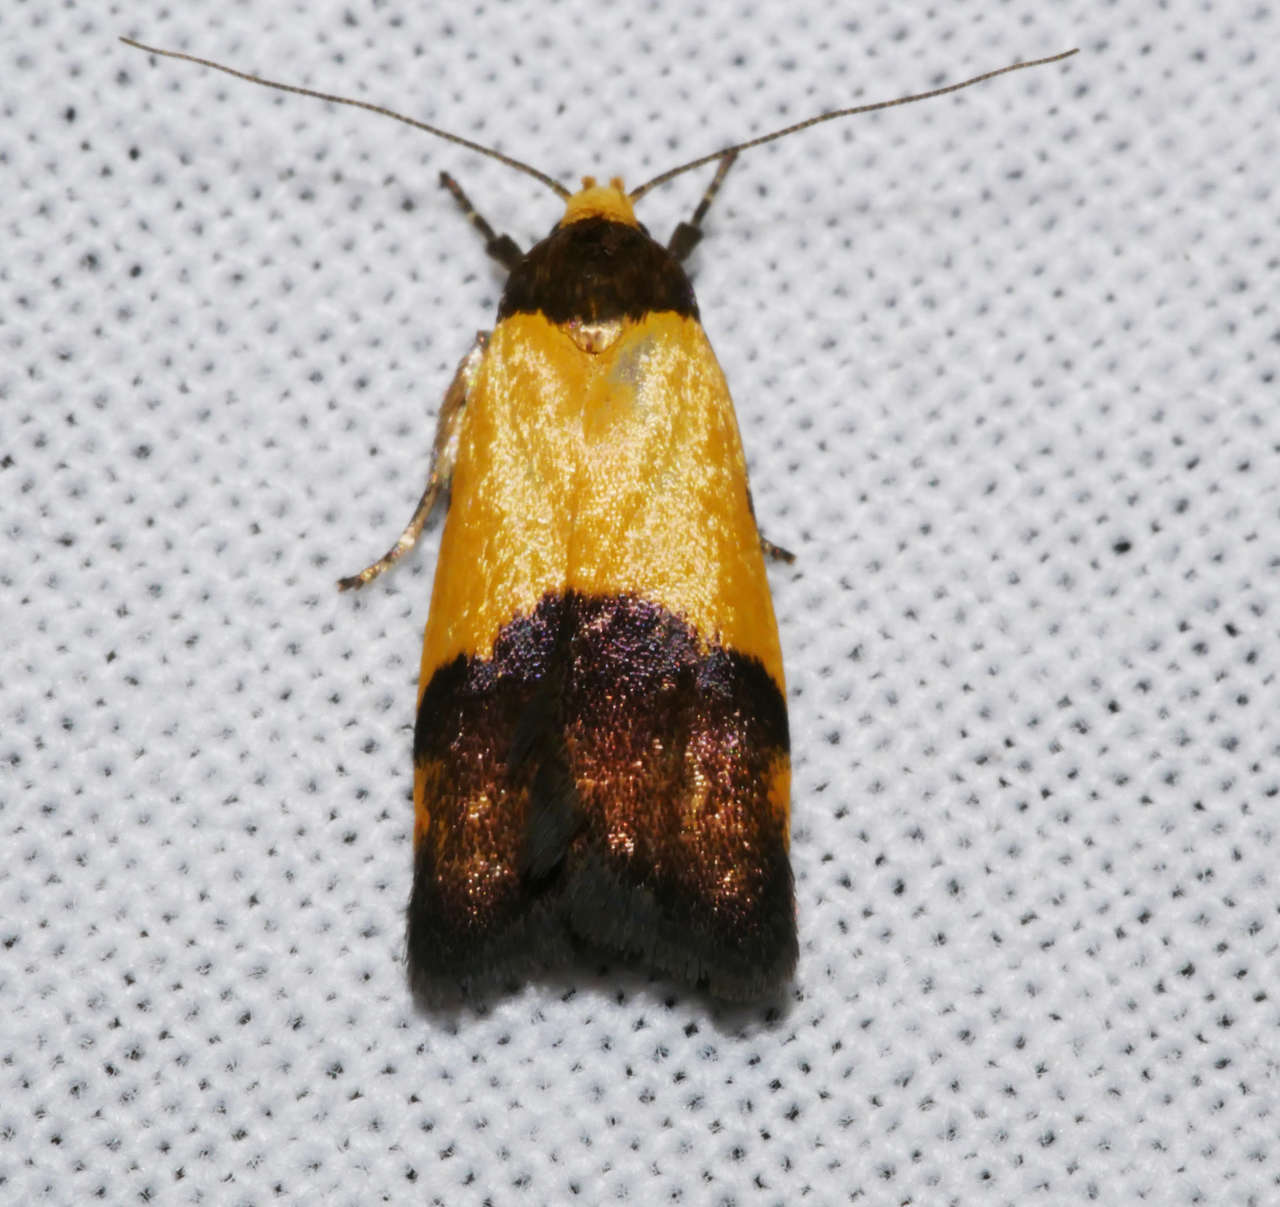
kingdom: Animalia
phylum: Arthropoda
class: Insecta
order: Lepidoptera
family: Oecophoridae
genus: Heteroteucha
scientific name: Heteroteucha kershawi
